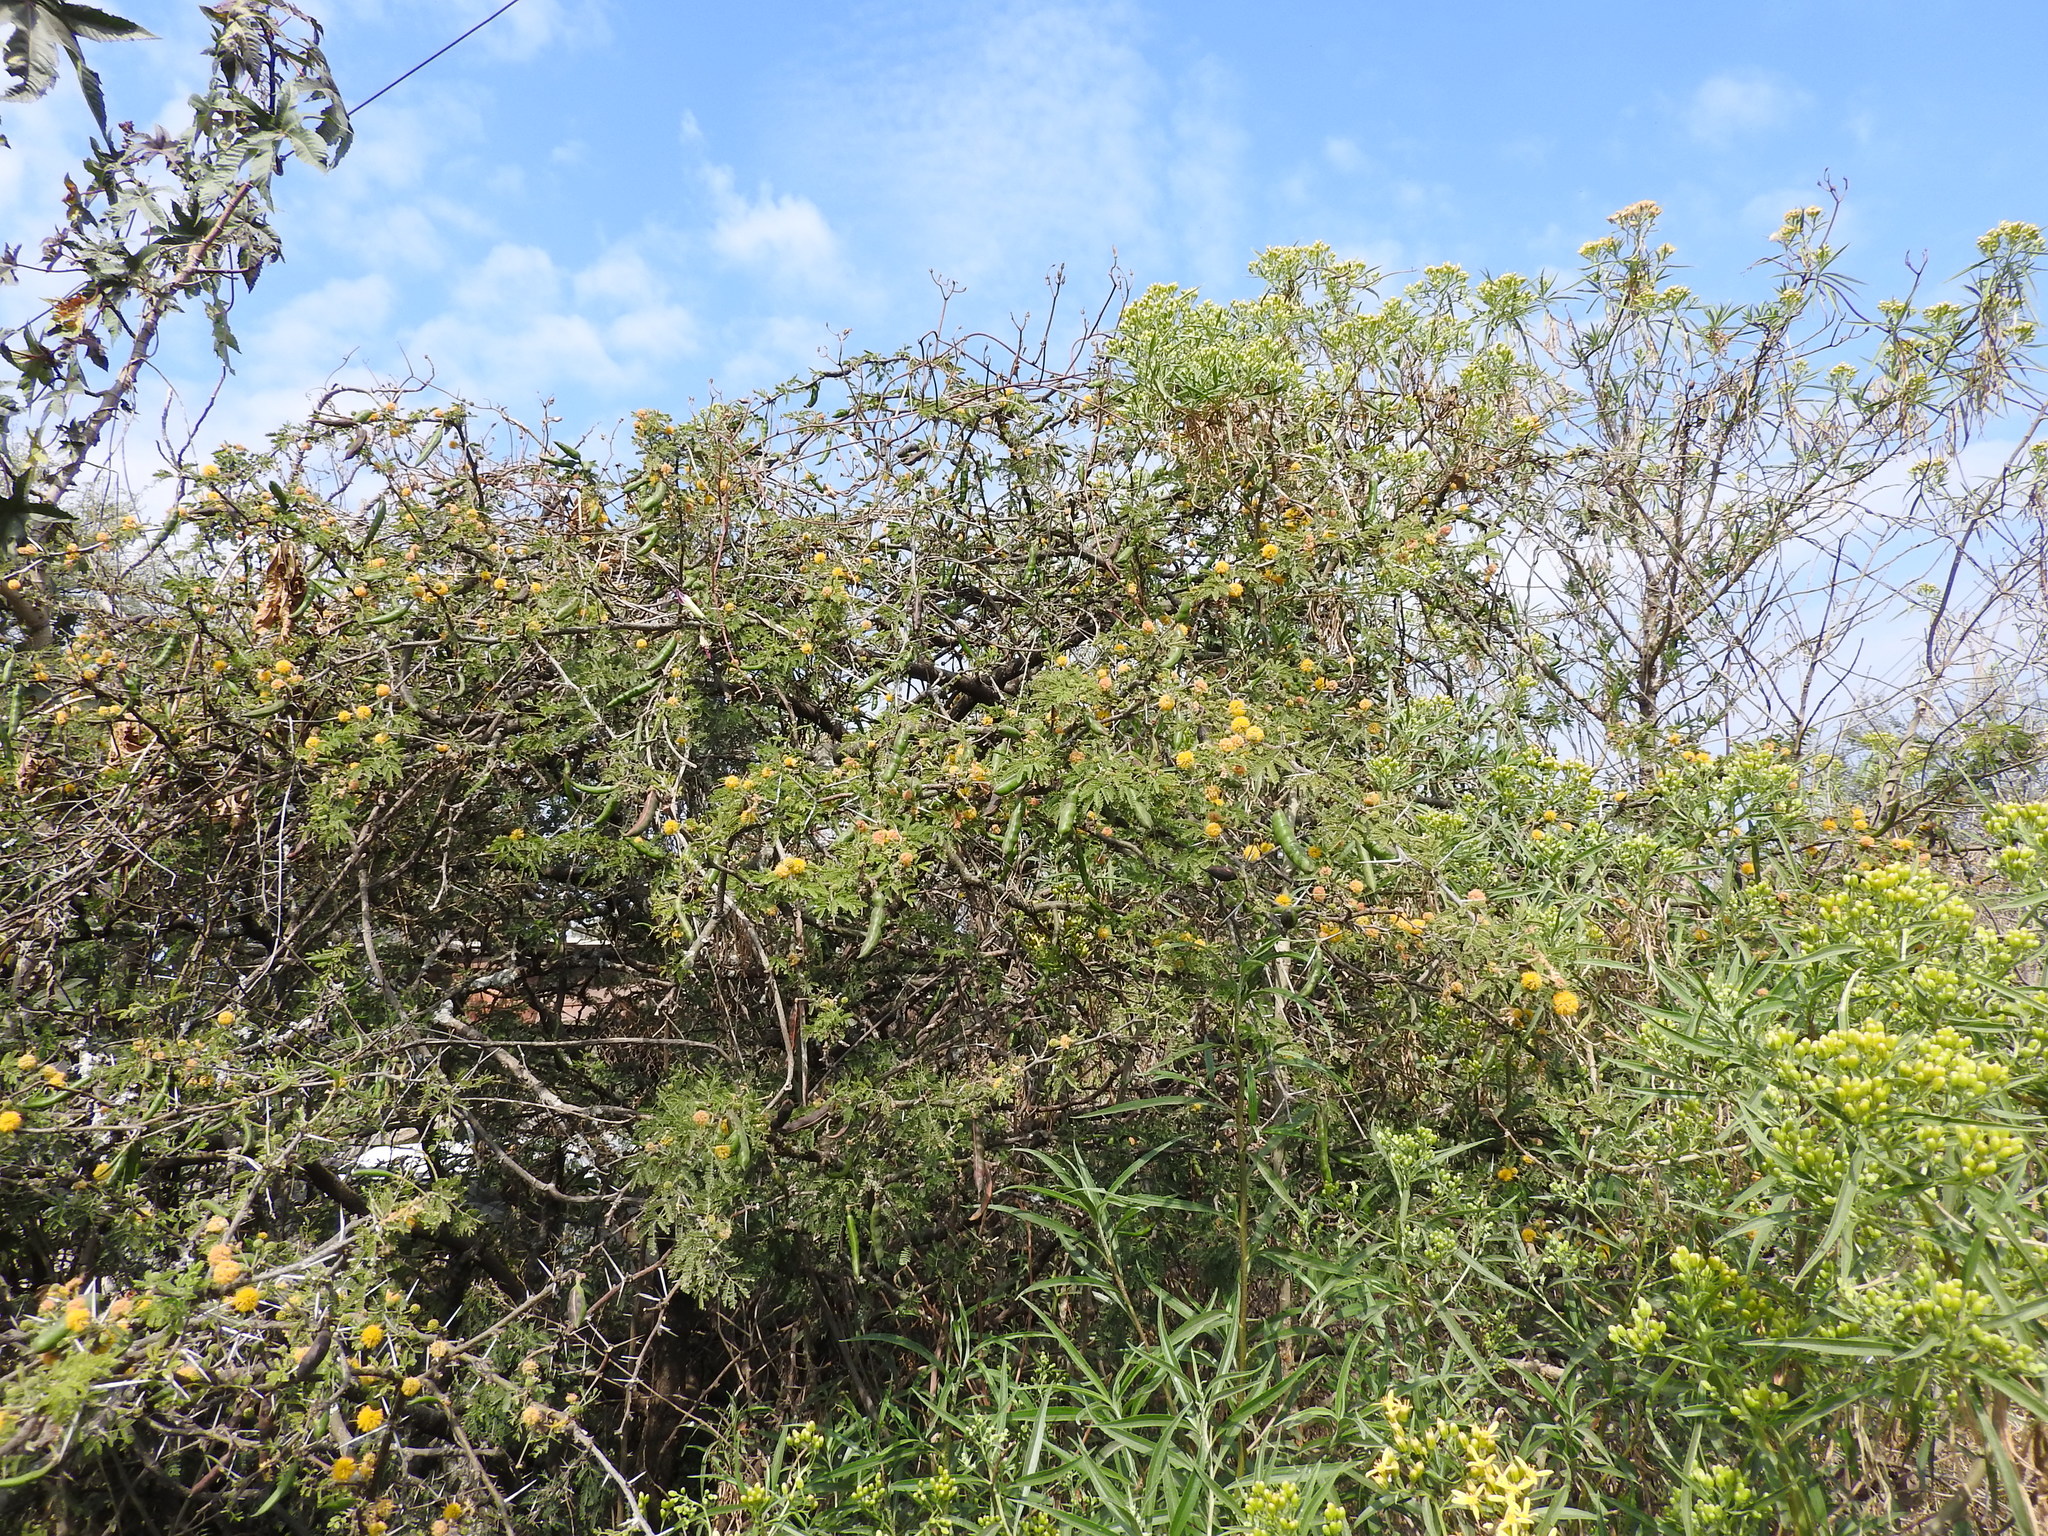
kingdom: Plantae
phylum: Tracheophyta
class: Magnoliopsida
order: Fabales
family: Fabaceae
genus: Vachellia
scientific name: Vachellia farnesiana
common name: Sweet acacia
